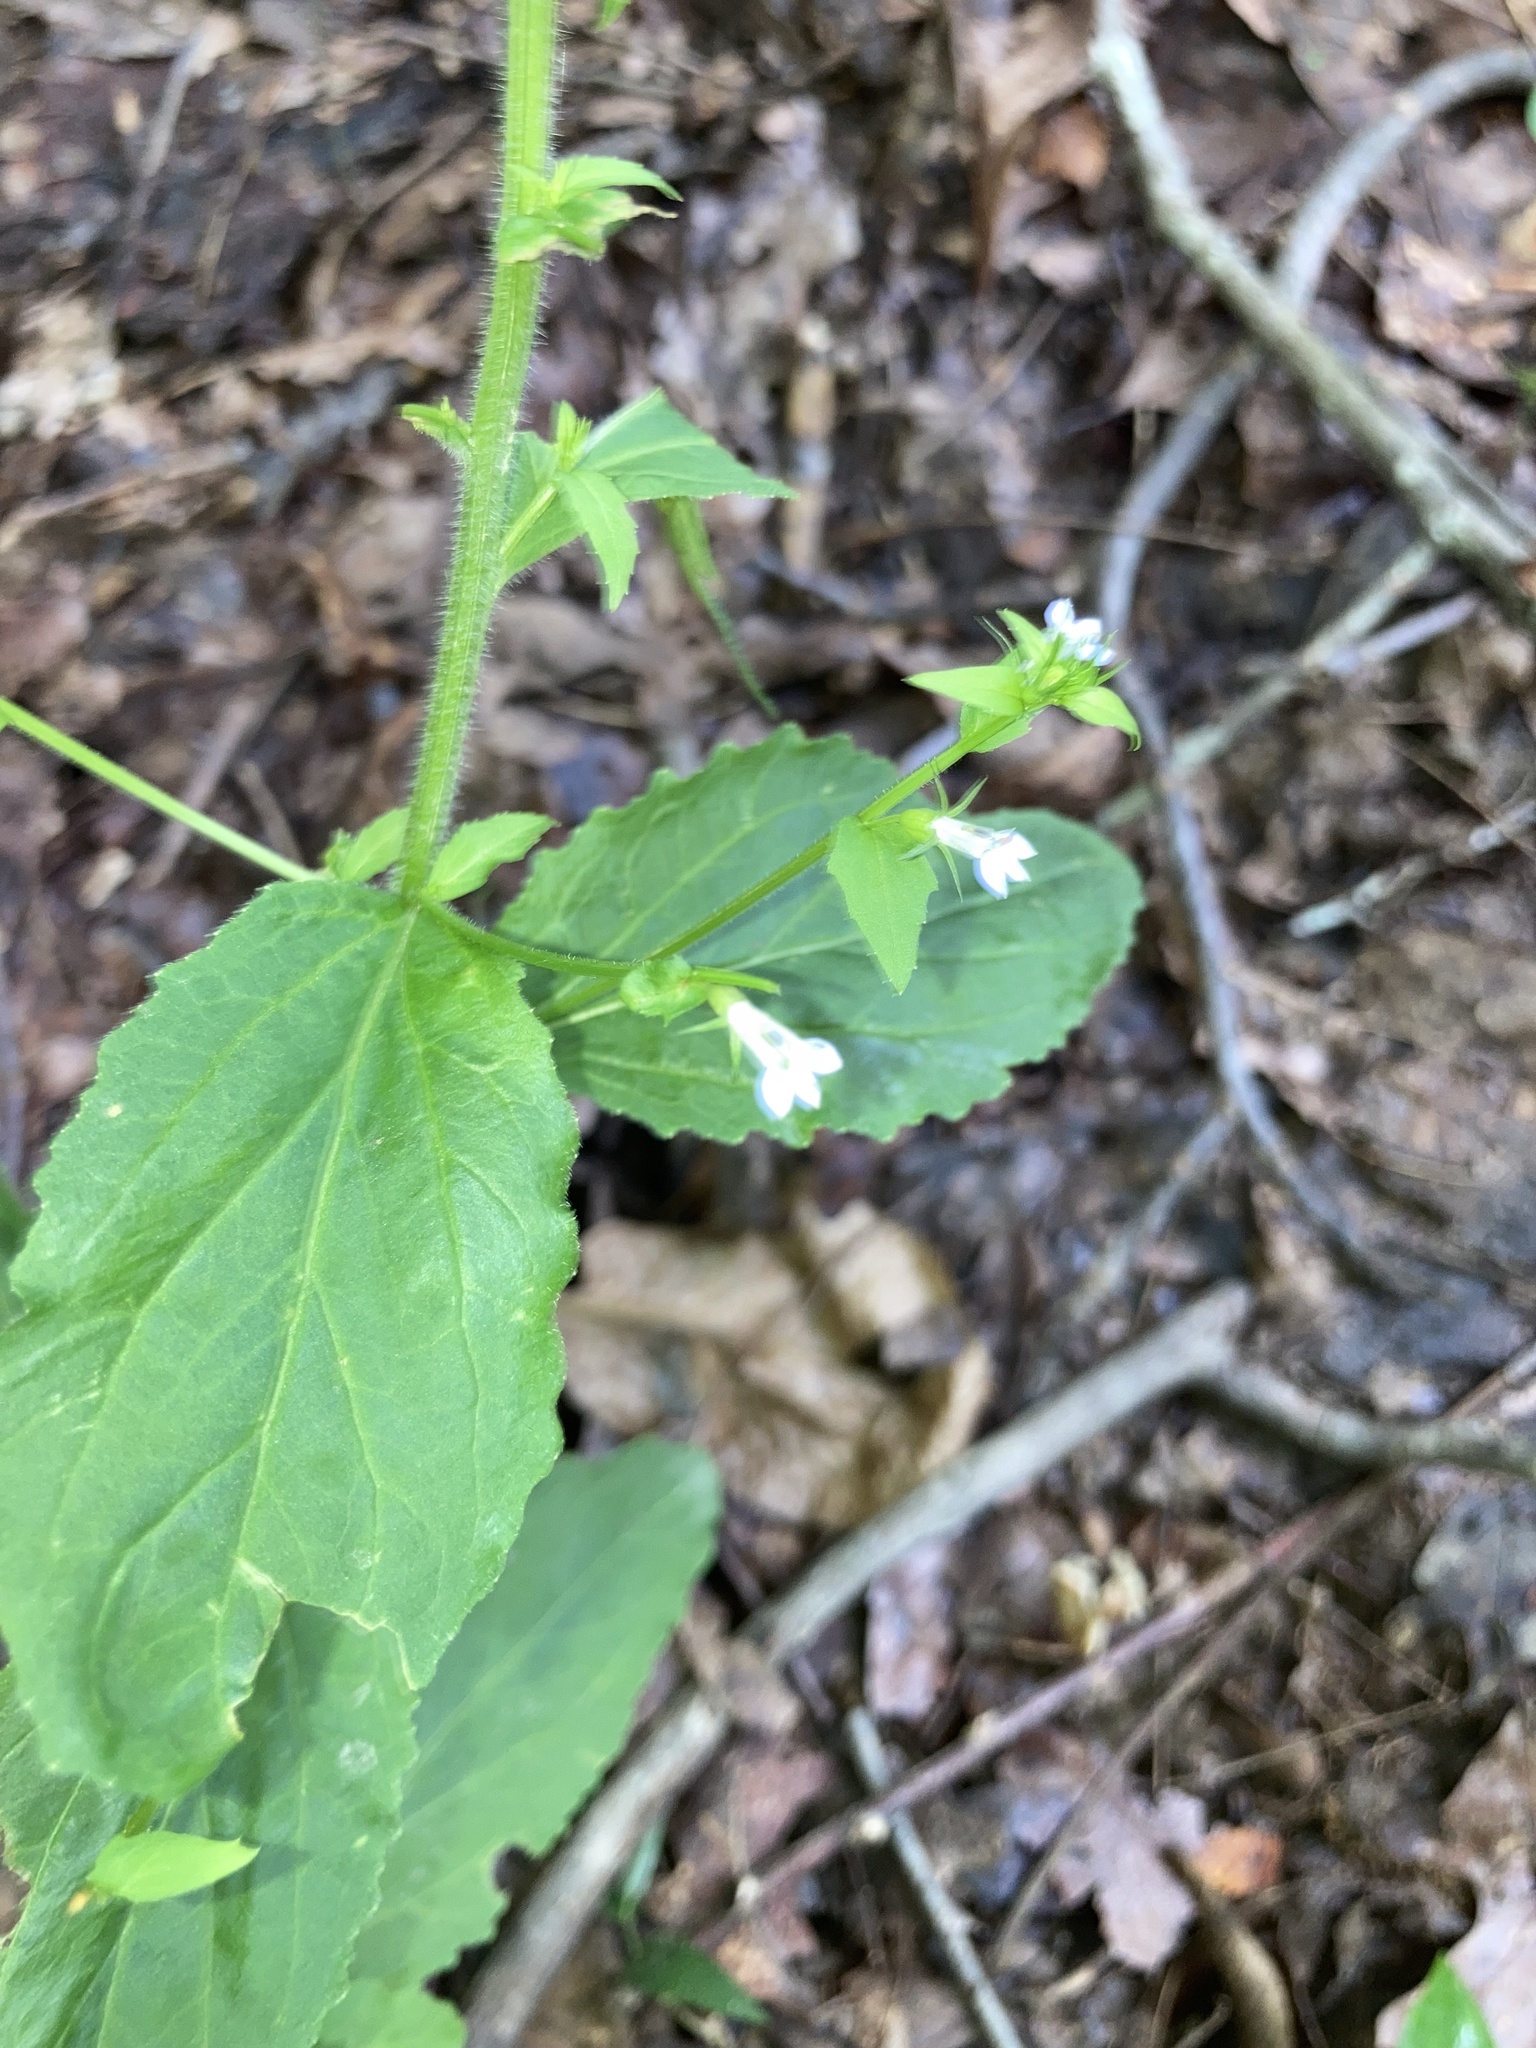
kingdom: Plantae
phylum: Tracheophyta
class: Magnoliopsida
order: Asterales
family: Campanulaceae
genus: Lobelia
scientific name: Lobelia inflata
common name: Indian tobacco
